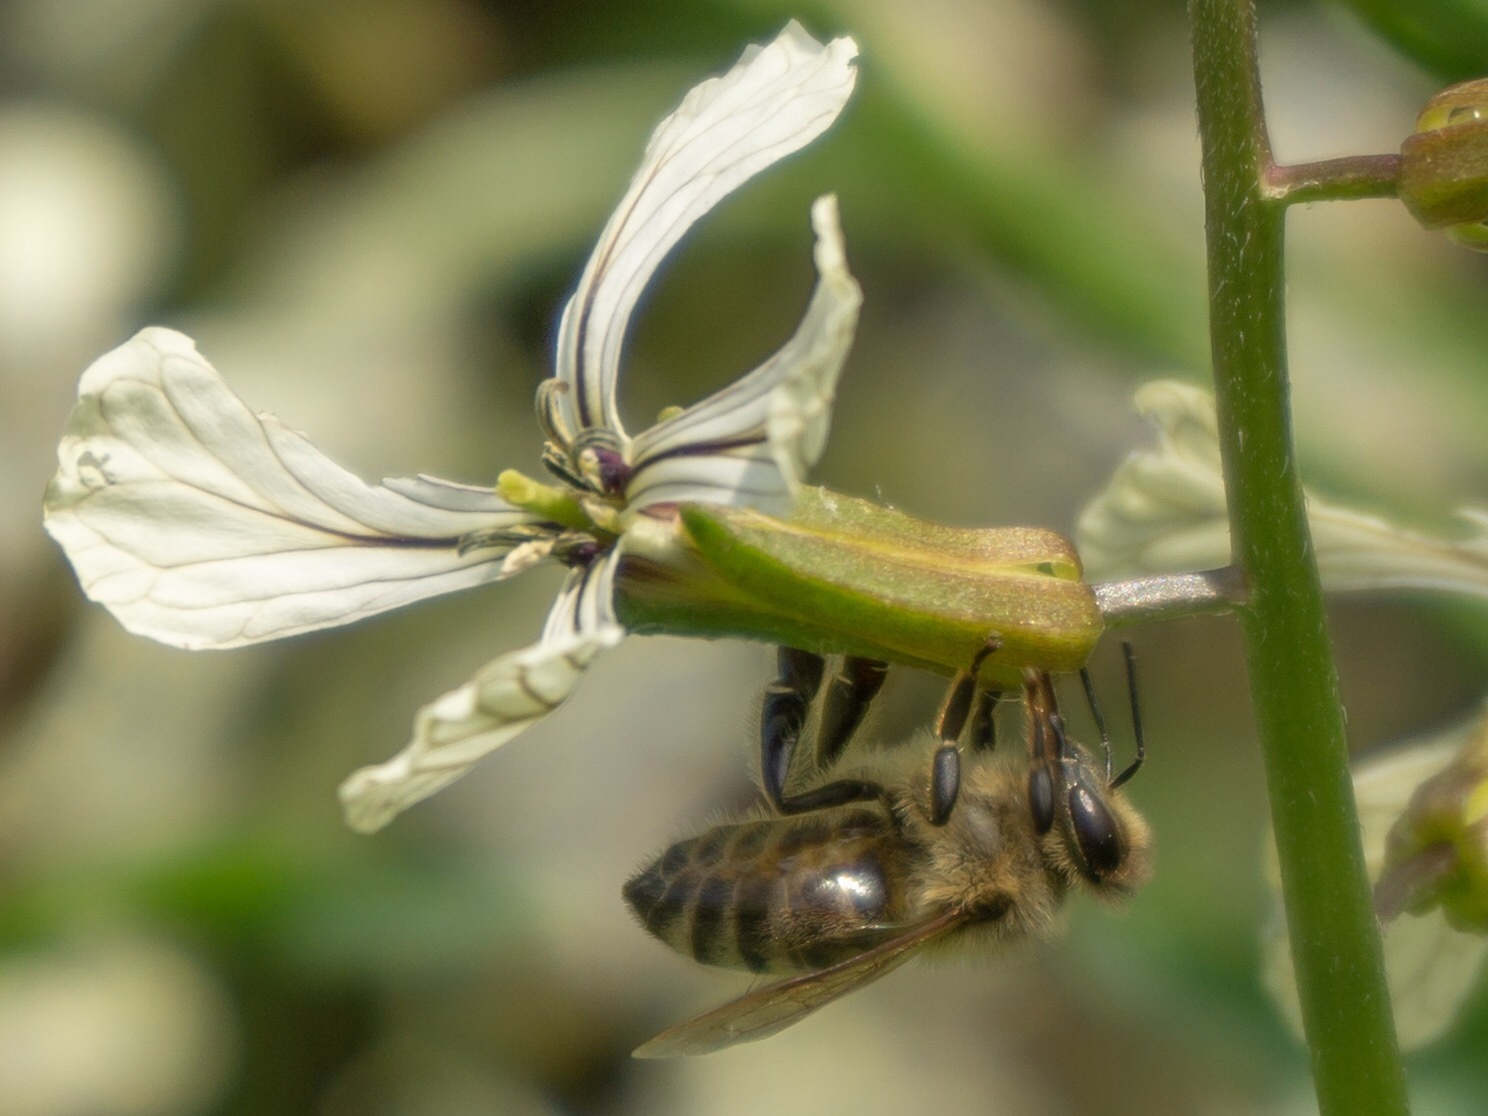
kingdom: Animalia
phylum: Arthropoda
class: Insecta
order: Hymenoptera
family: Apidae
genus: Apis
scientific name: Apis mellifera
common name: Honey bee
